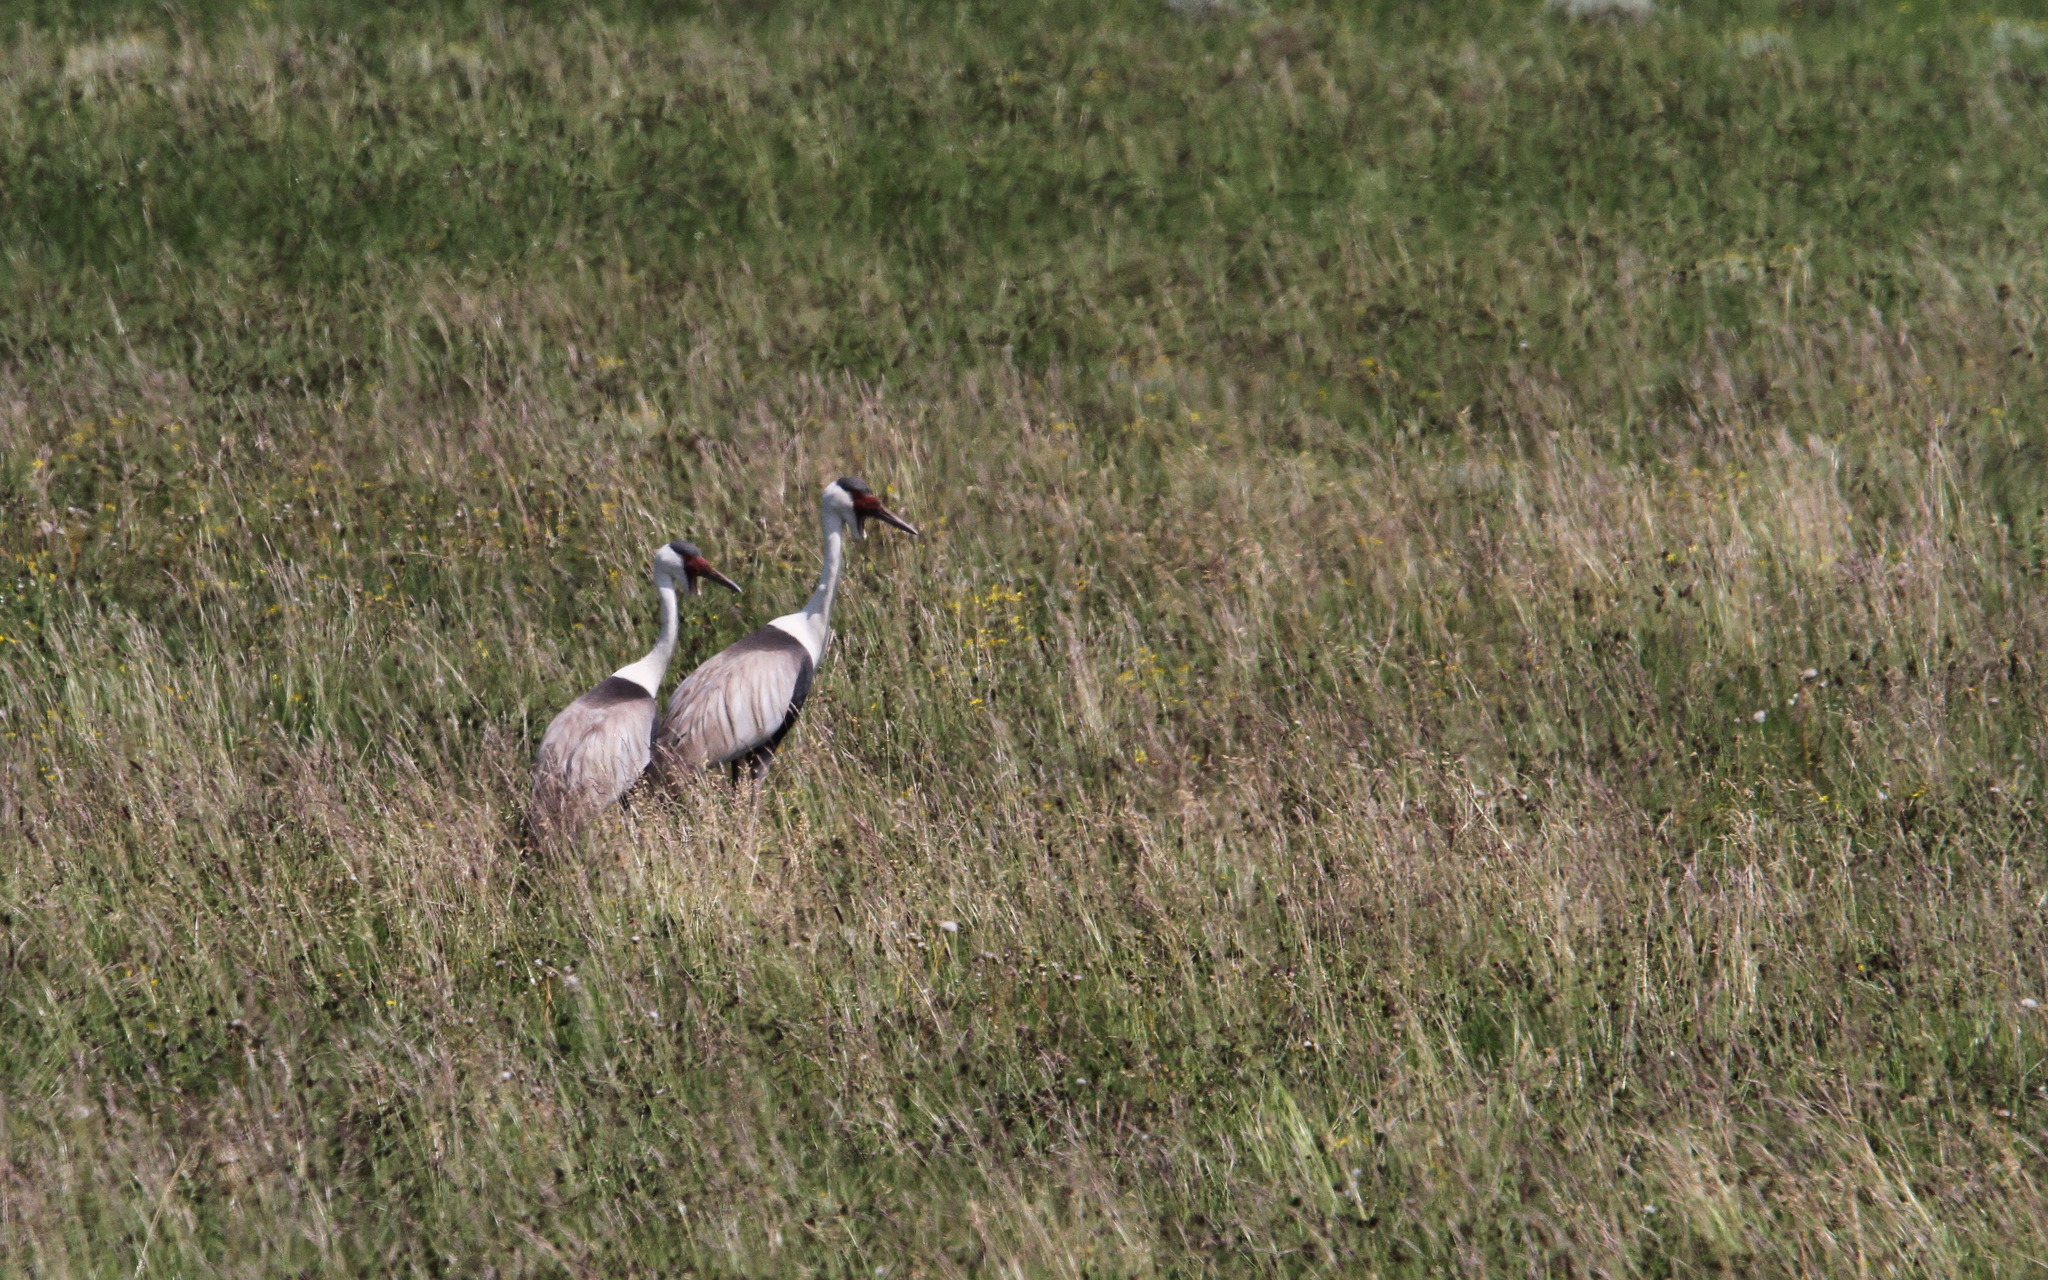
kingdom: Animalia
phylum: Chordata
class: Aves
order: Gruiformes
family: Gruidae
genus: Bugeranus
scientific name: Bugeranus carunculatus
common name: Wattled crane
